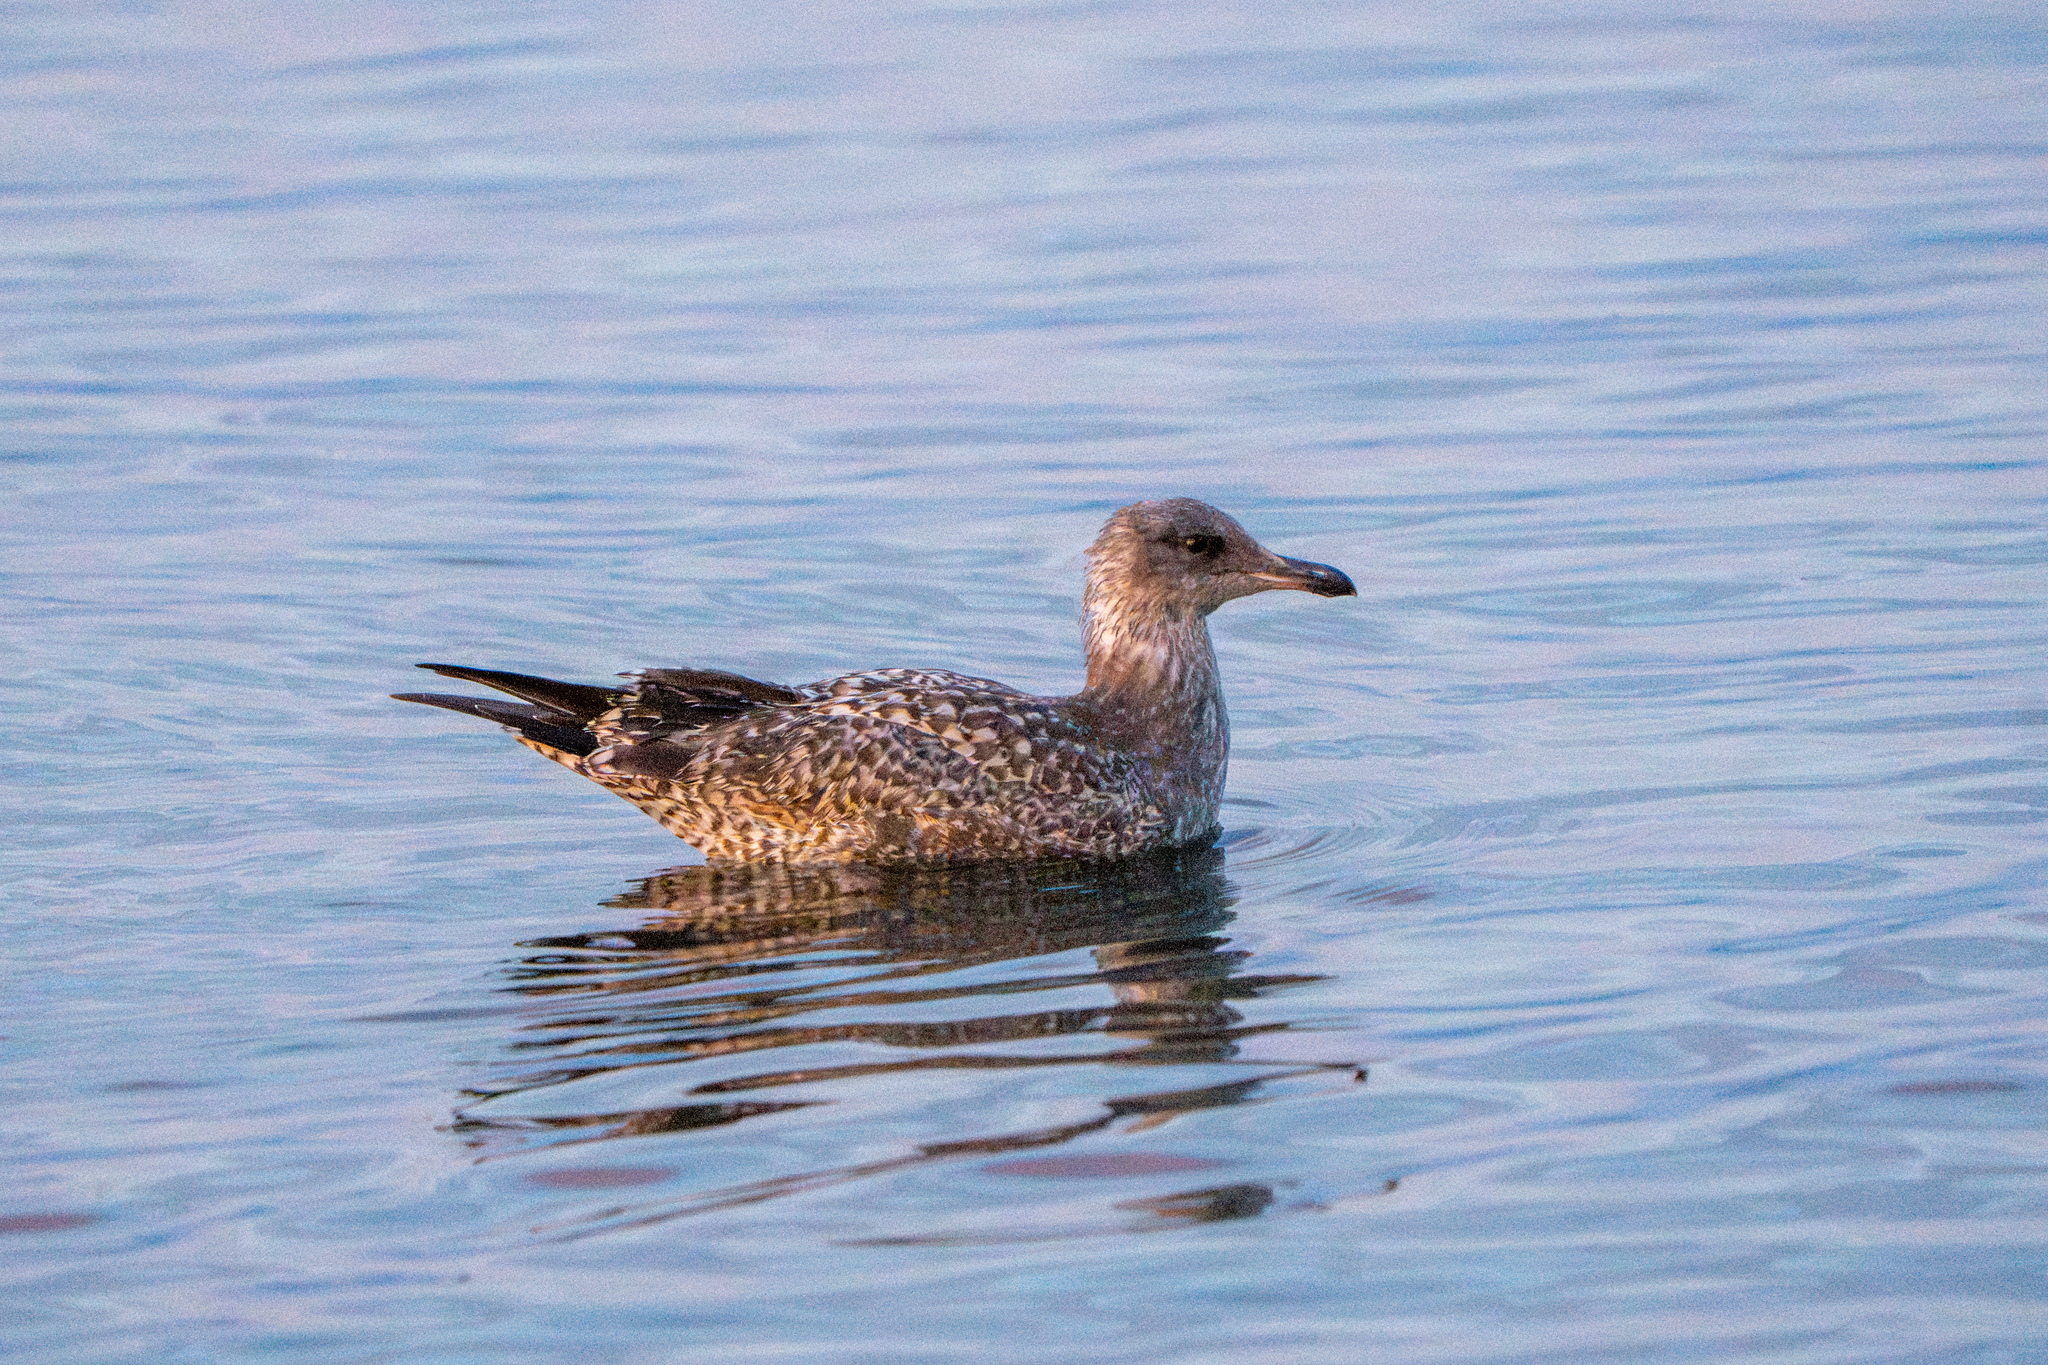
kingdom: Animalia
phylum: Chordata
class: Aves
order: Charadriiformes
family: Laridae
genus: Larus
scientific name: Larus californicus
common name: California gull
